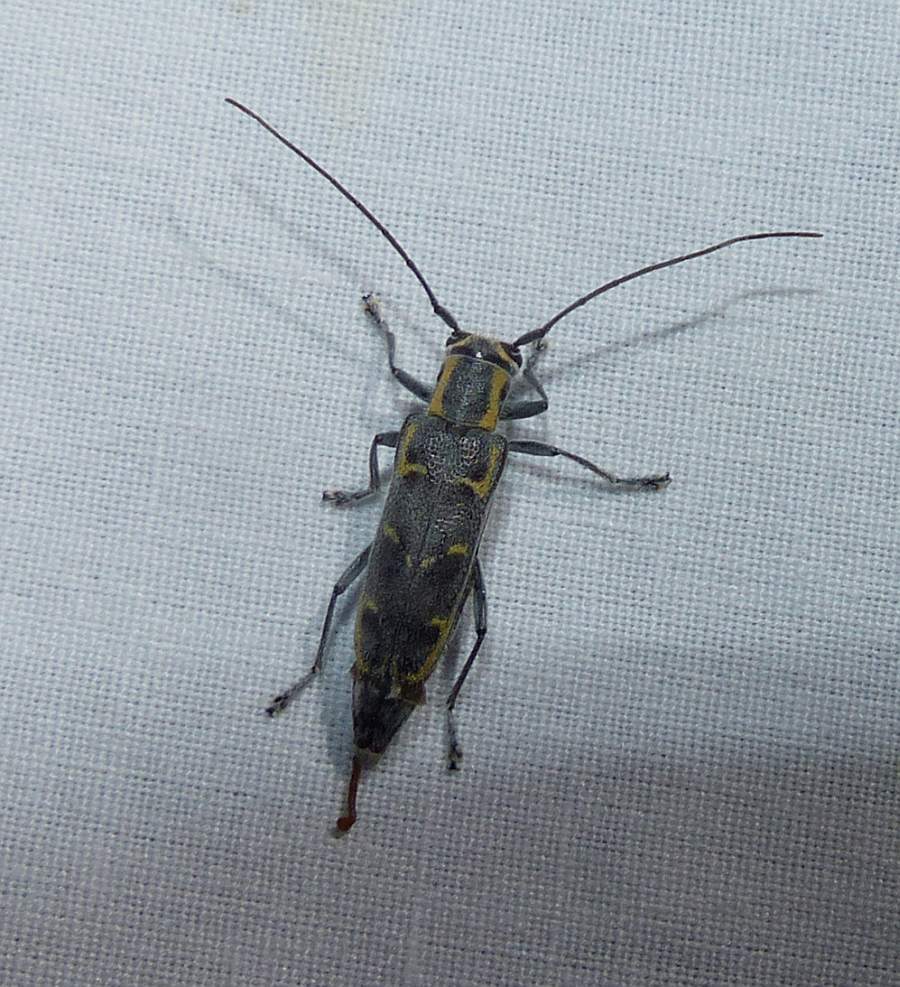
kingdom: Animalia
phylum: Arthropoda
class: Insecta
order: Coleoptera
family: Cerambycidae
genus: Saperda
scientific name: Saperda tridentata
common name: Elm borer
